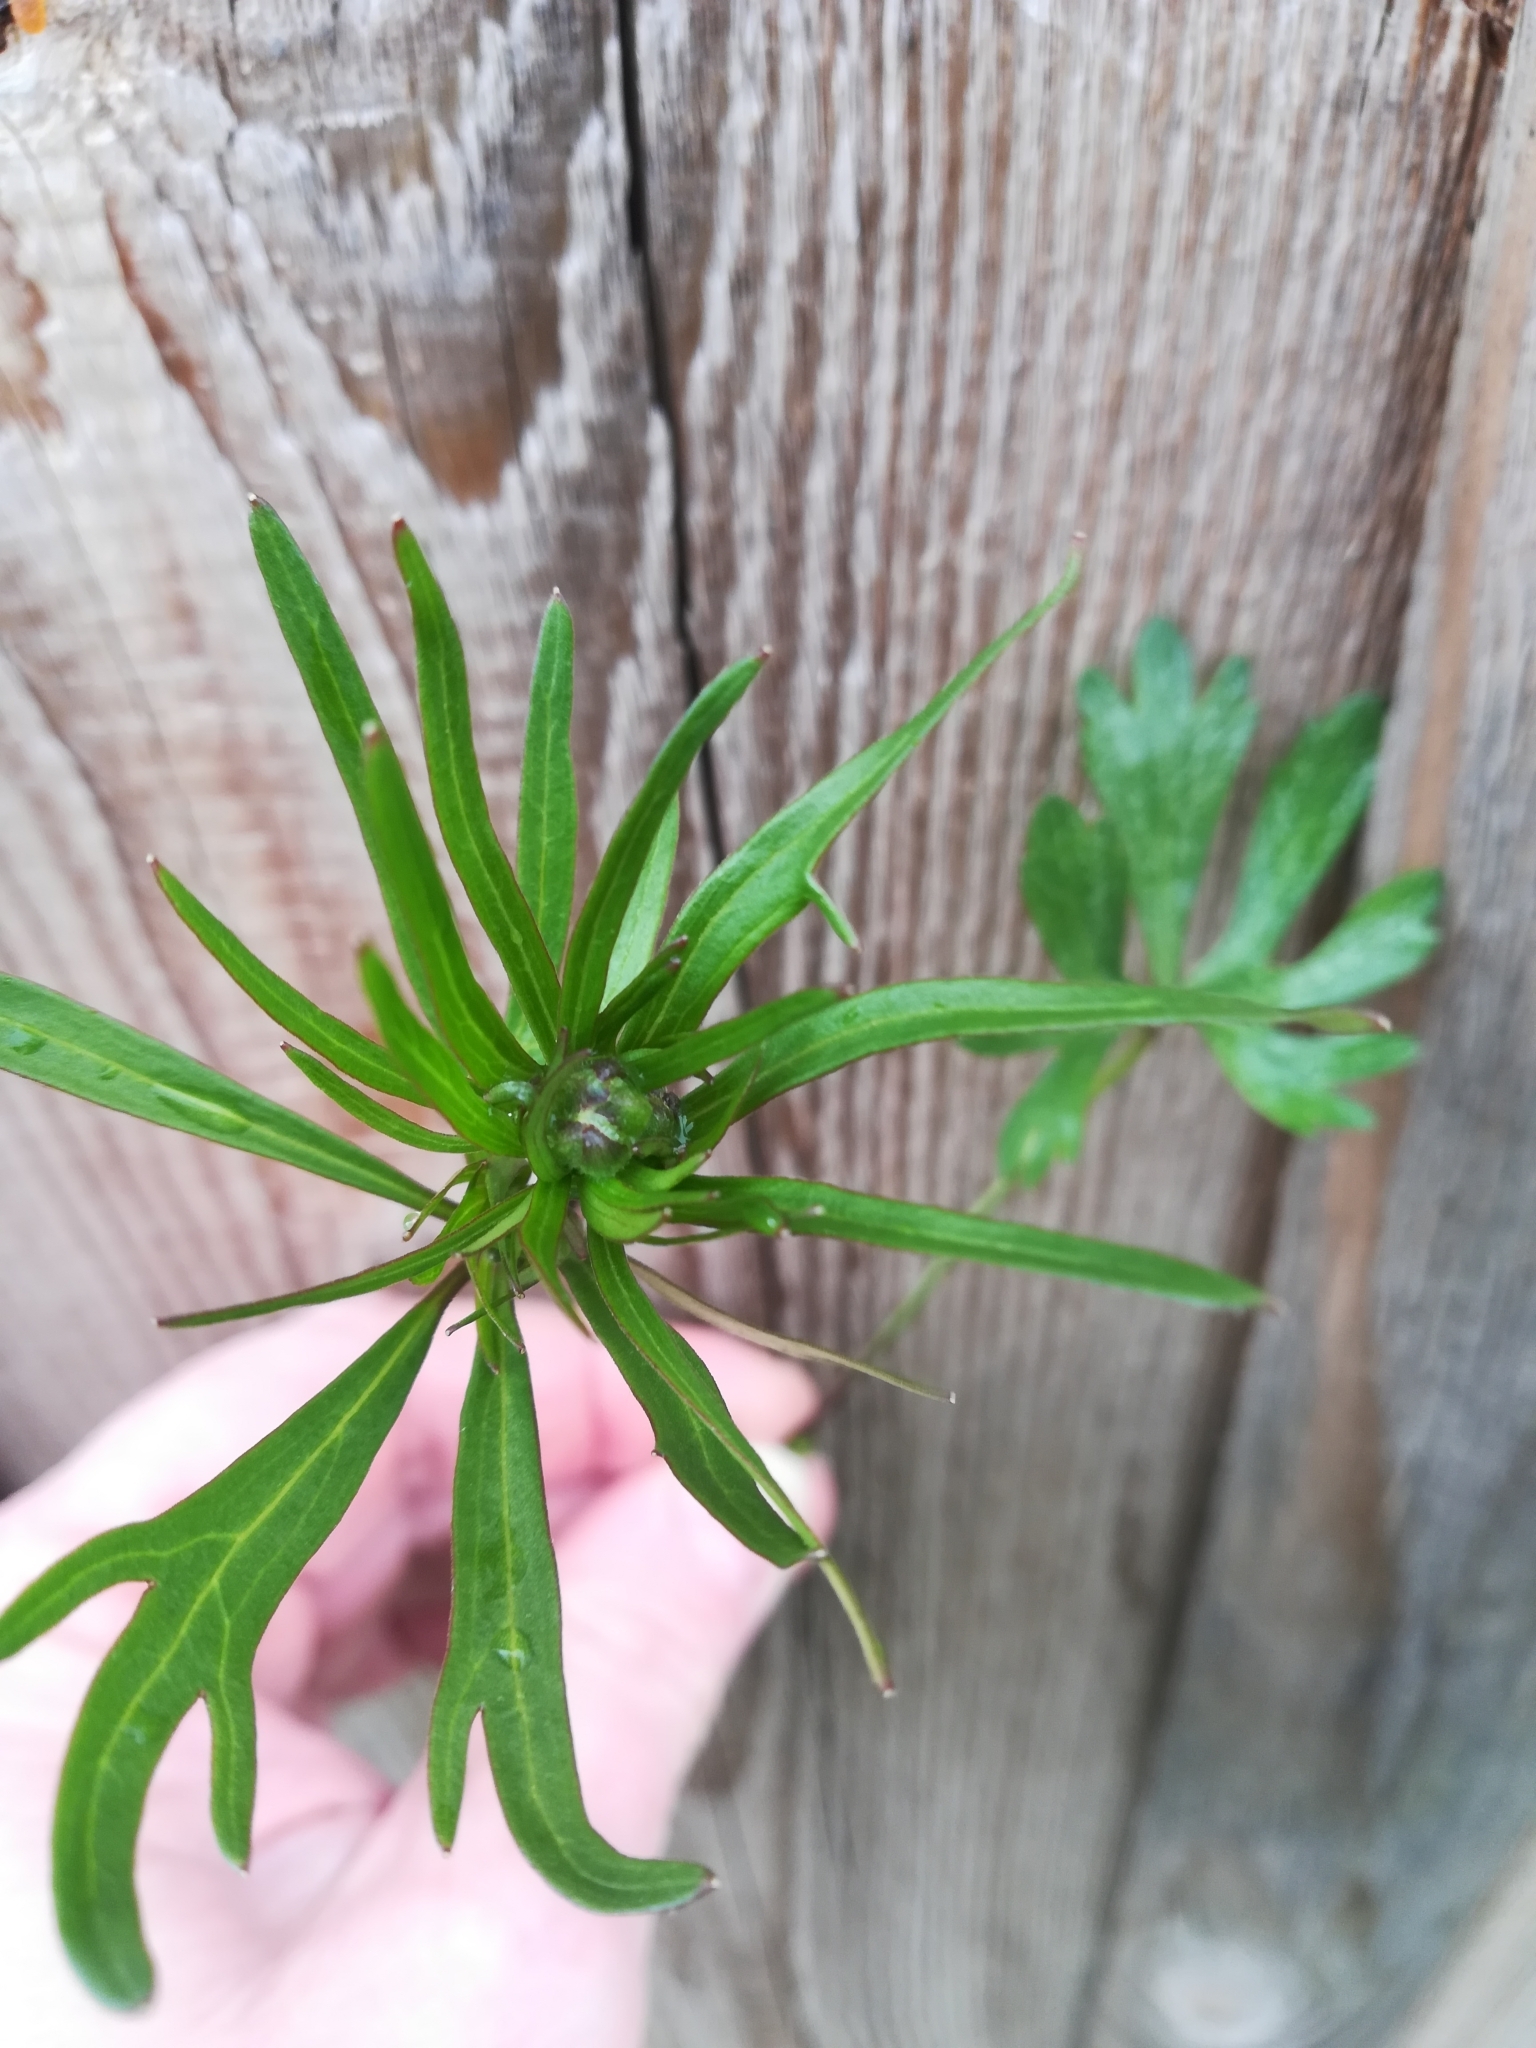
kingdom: Plantae
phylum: Tracheophyta
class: Magnoliopsida
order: Ranunculales
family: Ranunculaceae
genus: Ranunculus
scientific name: Ranunculus auricomus
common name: Goldilocks buttercup
